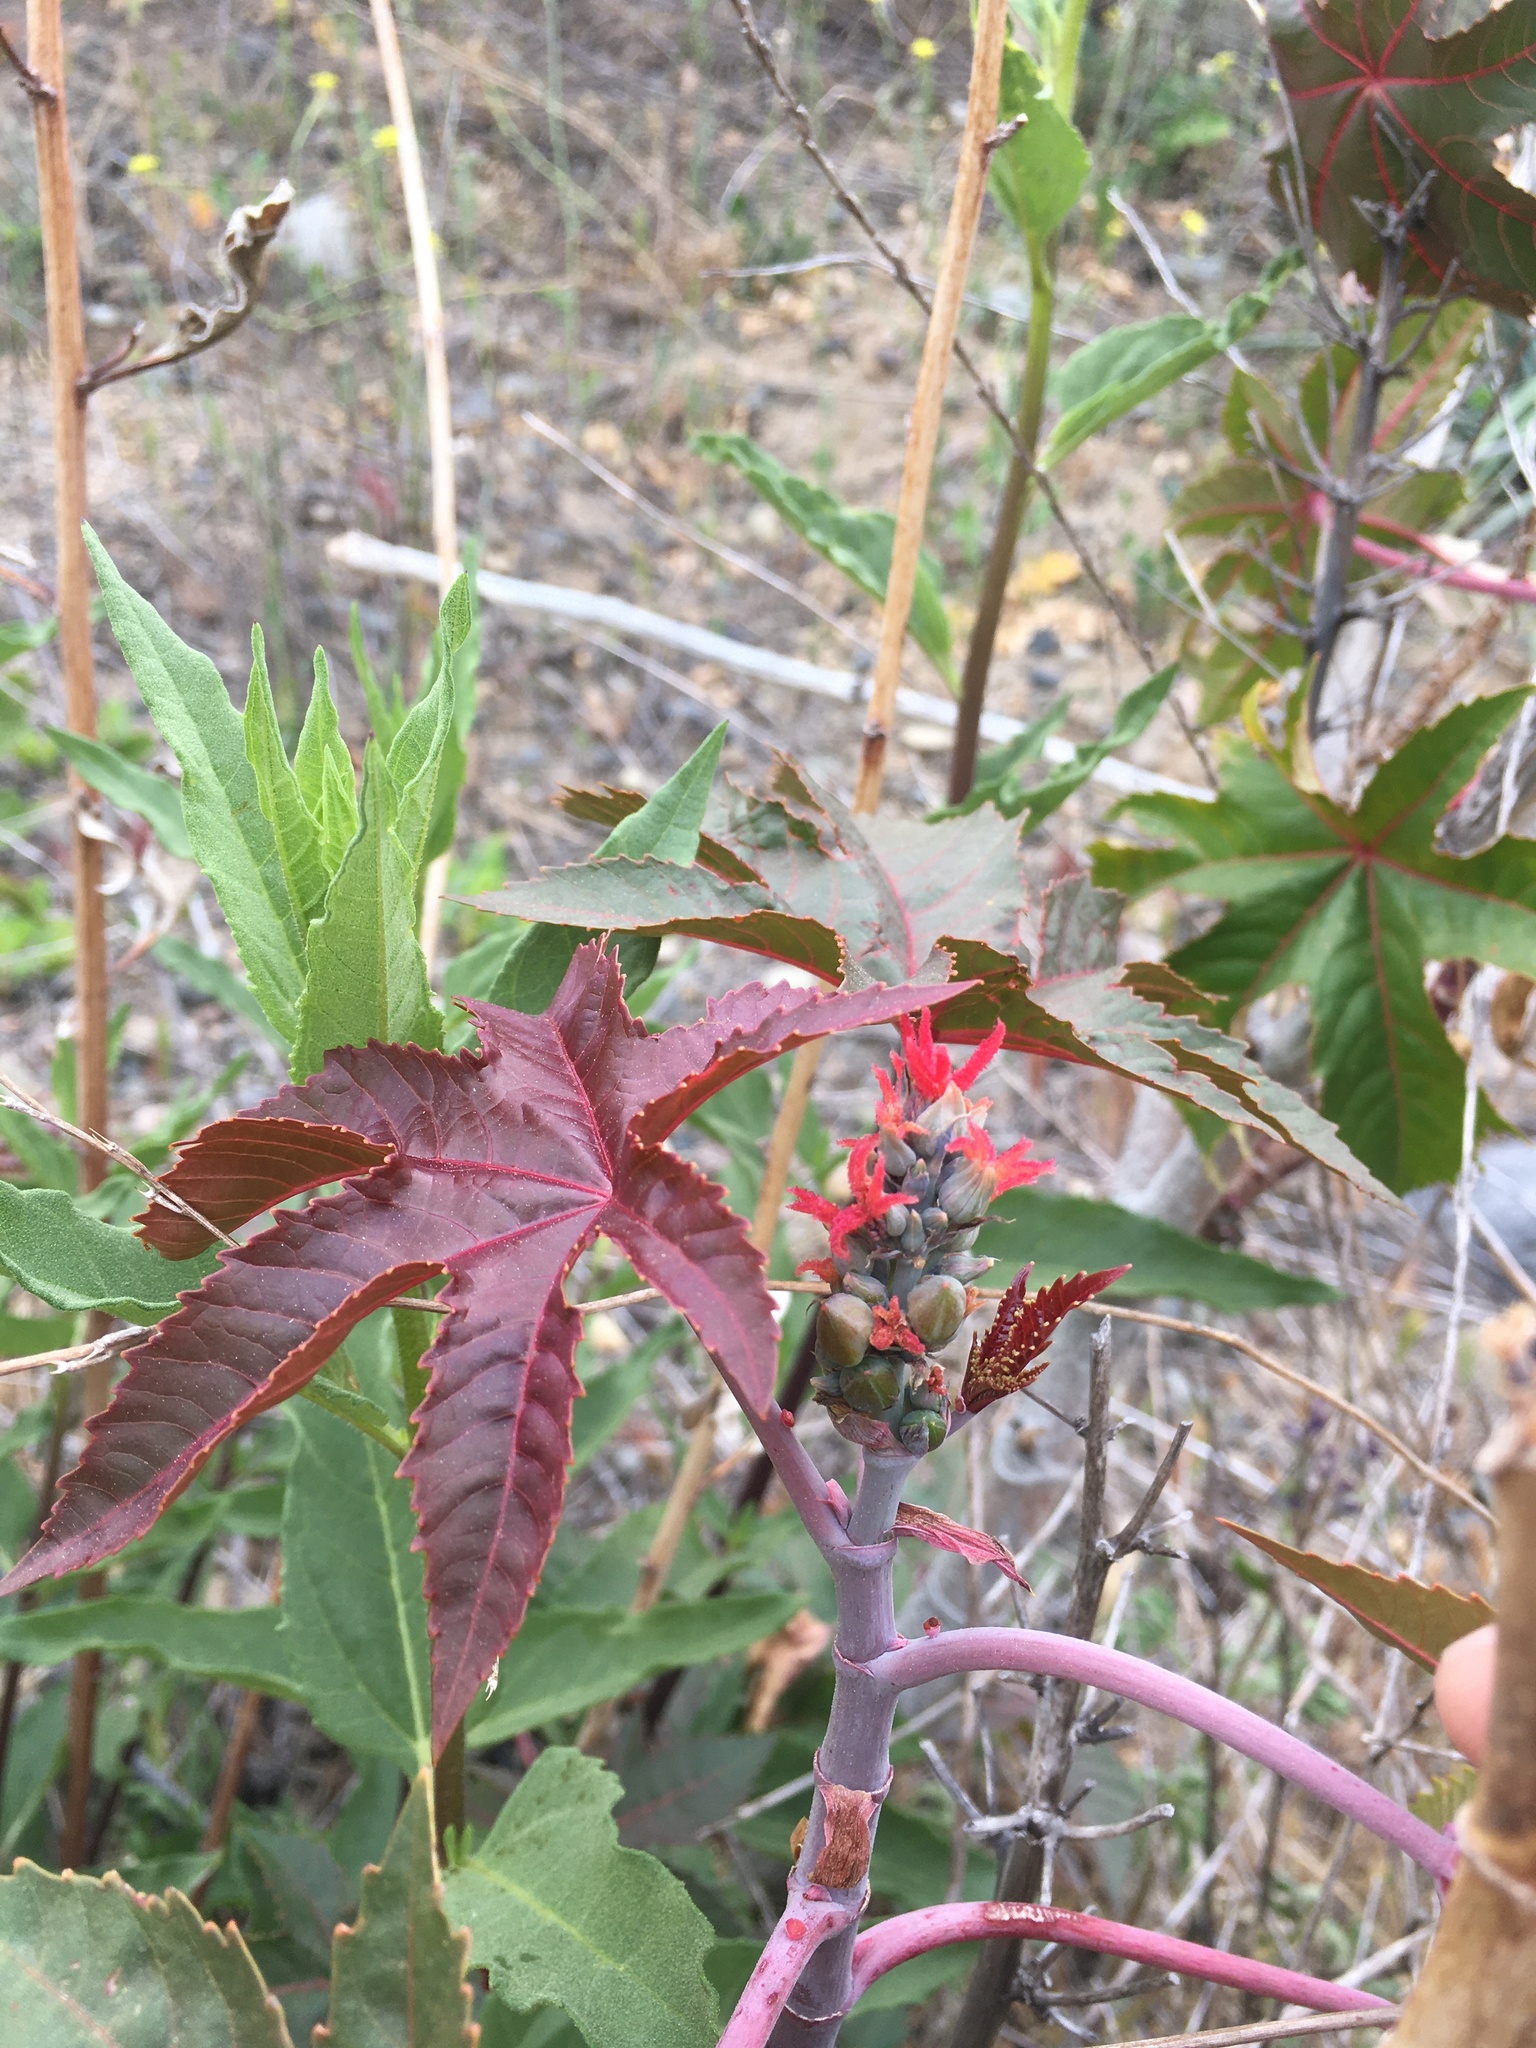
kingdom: Plantae
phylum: Tracheophyta
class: Magnoliopsida
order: Malpighiales
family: Euphorbiaceae
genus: Ricinus
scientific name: Ricinus communis
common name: Castor-oil-plant
